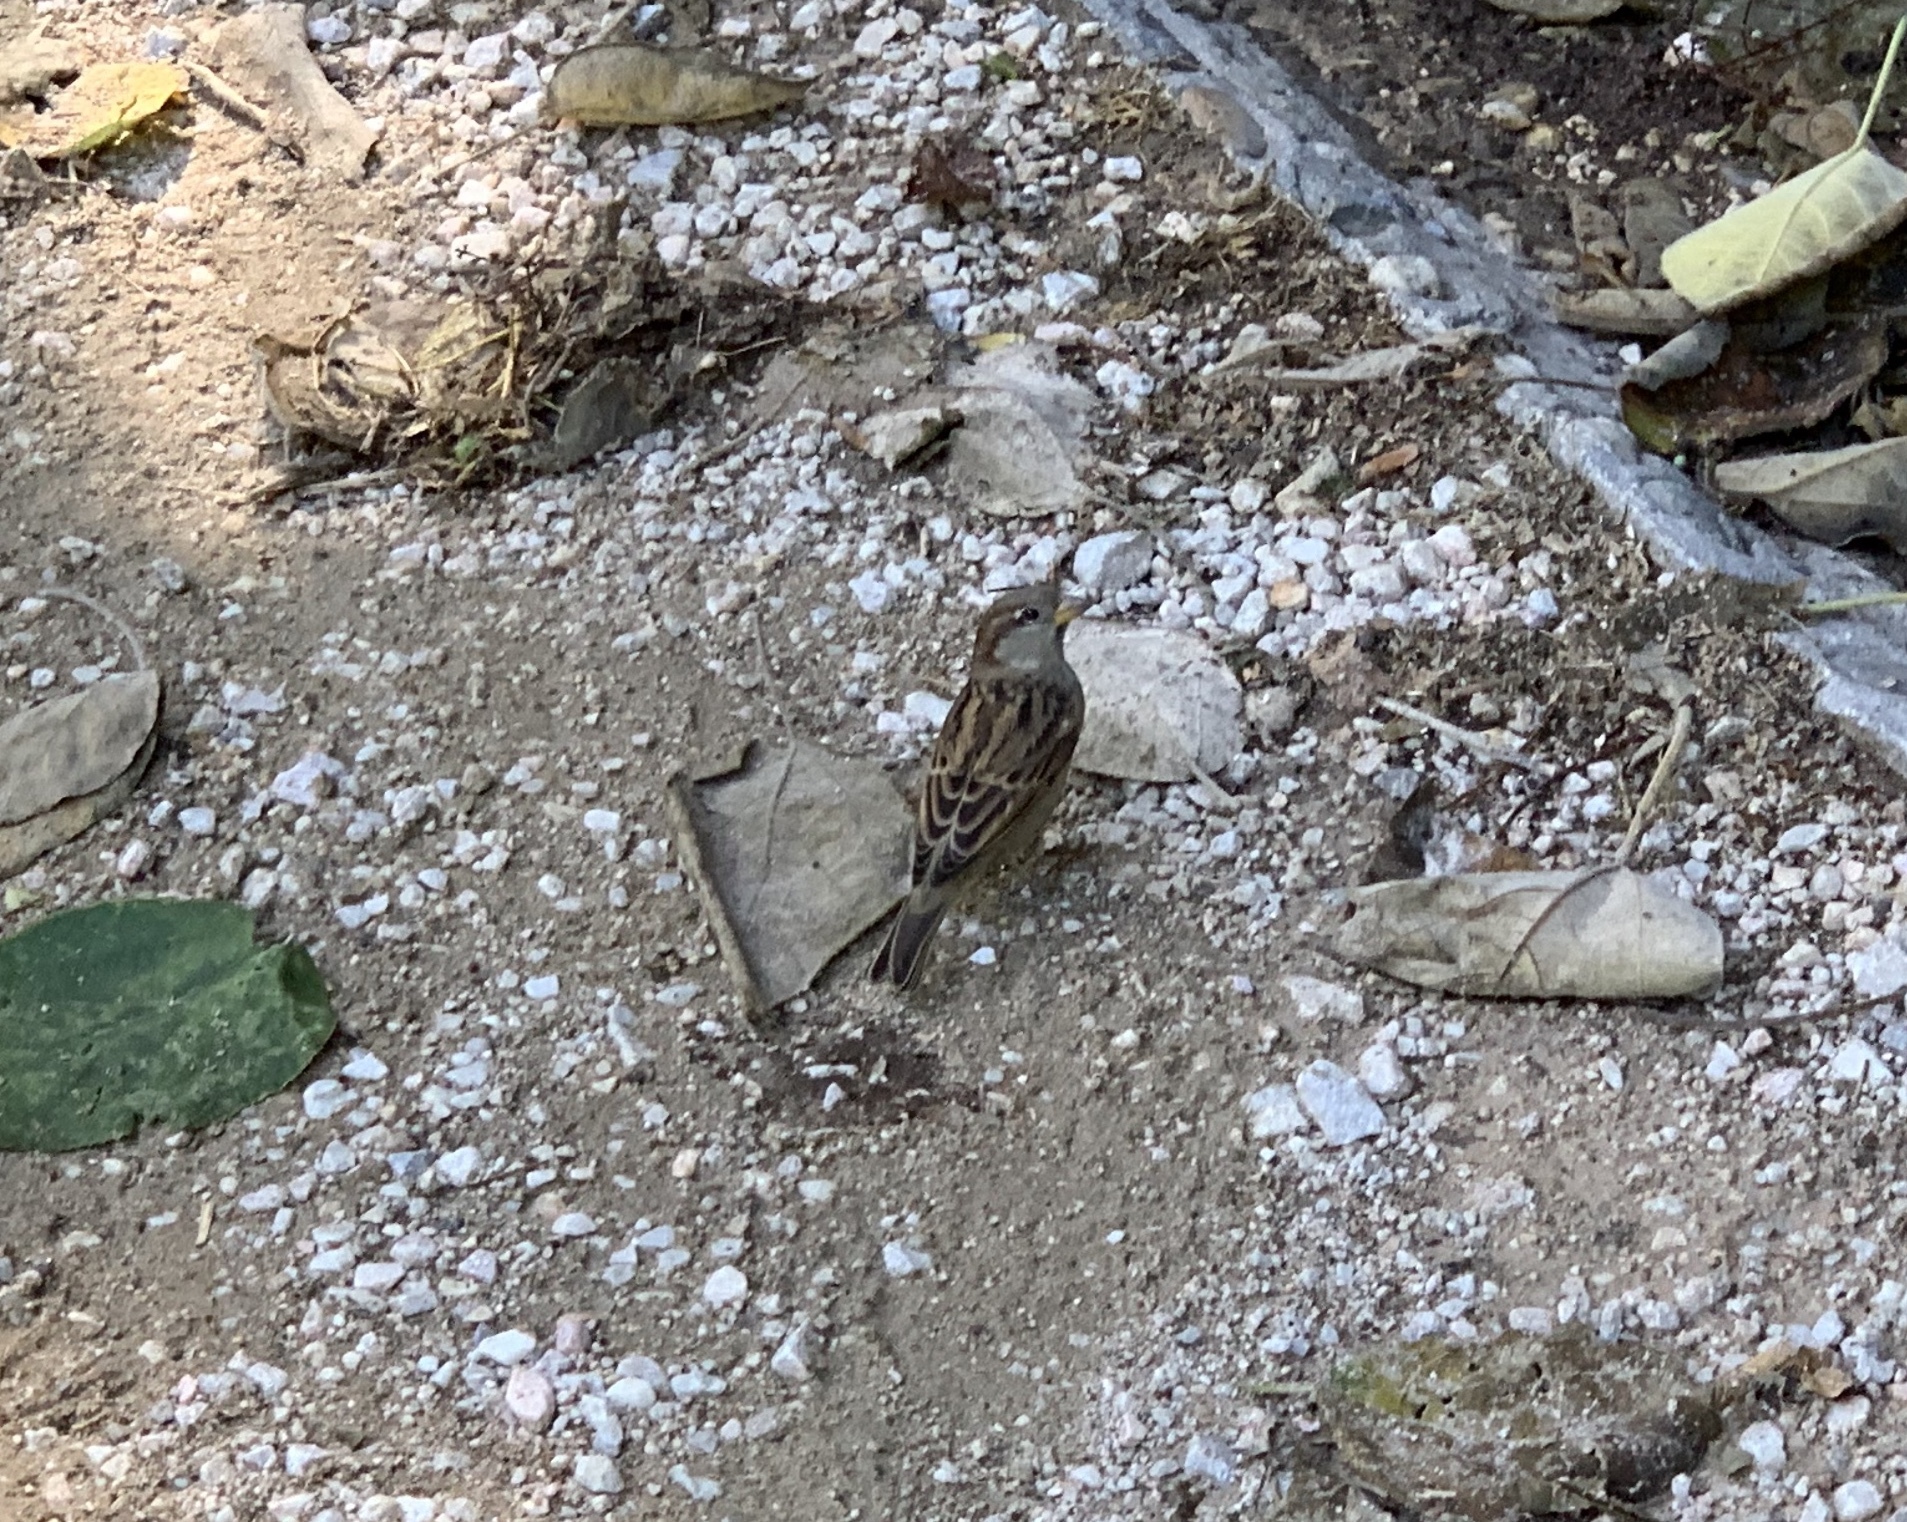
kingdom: Animalia
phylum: Chordata
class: Aves
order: Passeriformes
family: Passeridae
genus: Passer
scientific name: Passer domesticus
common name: House sparrow
